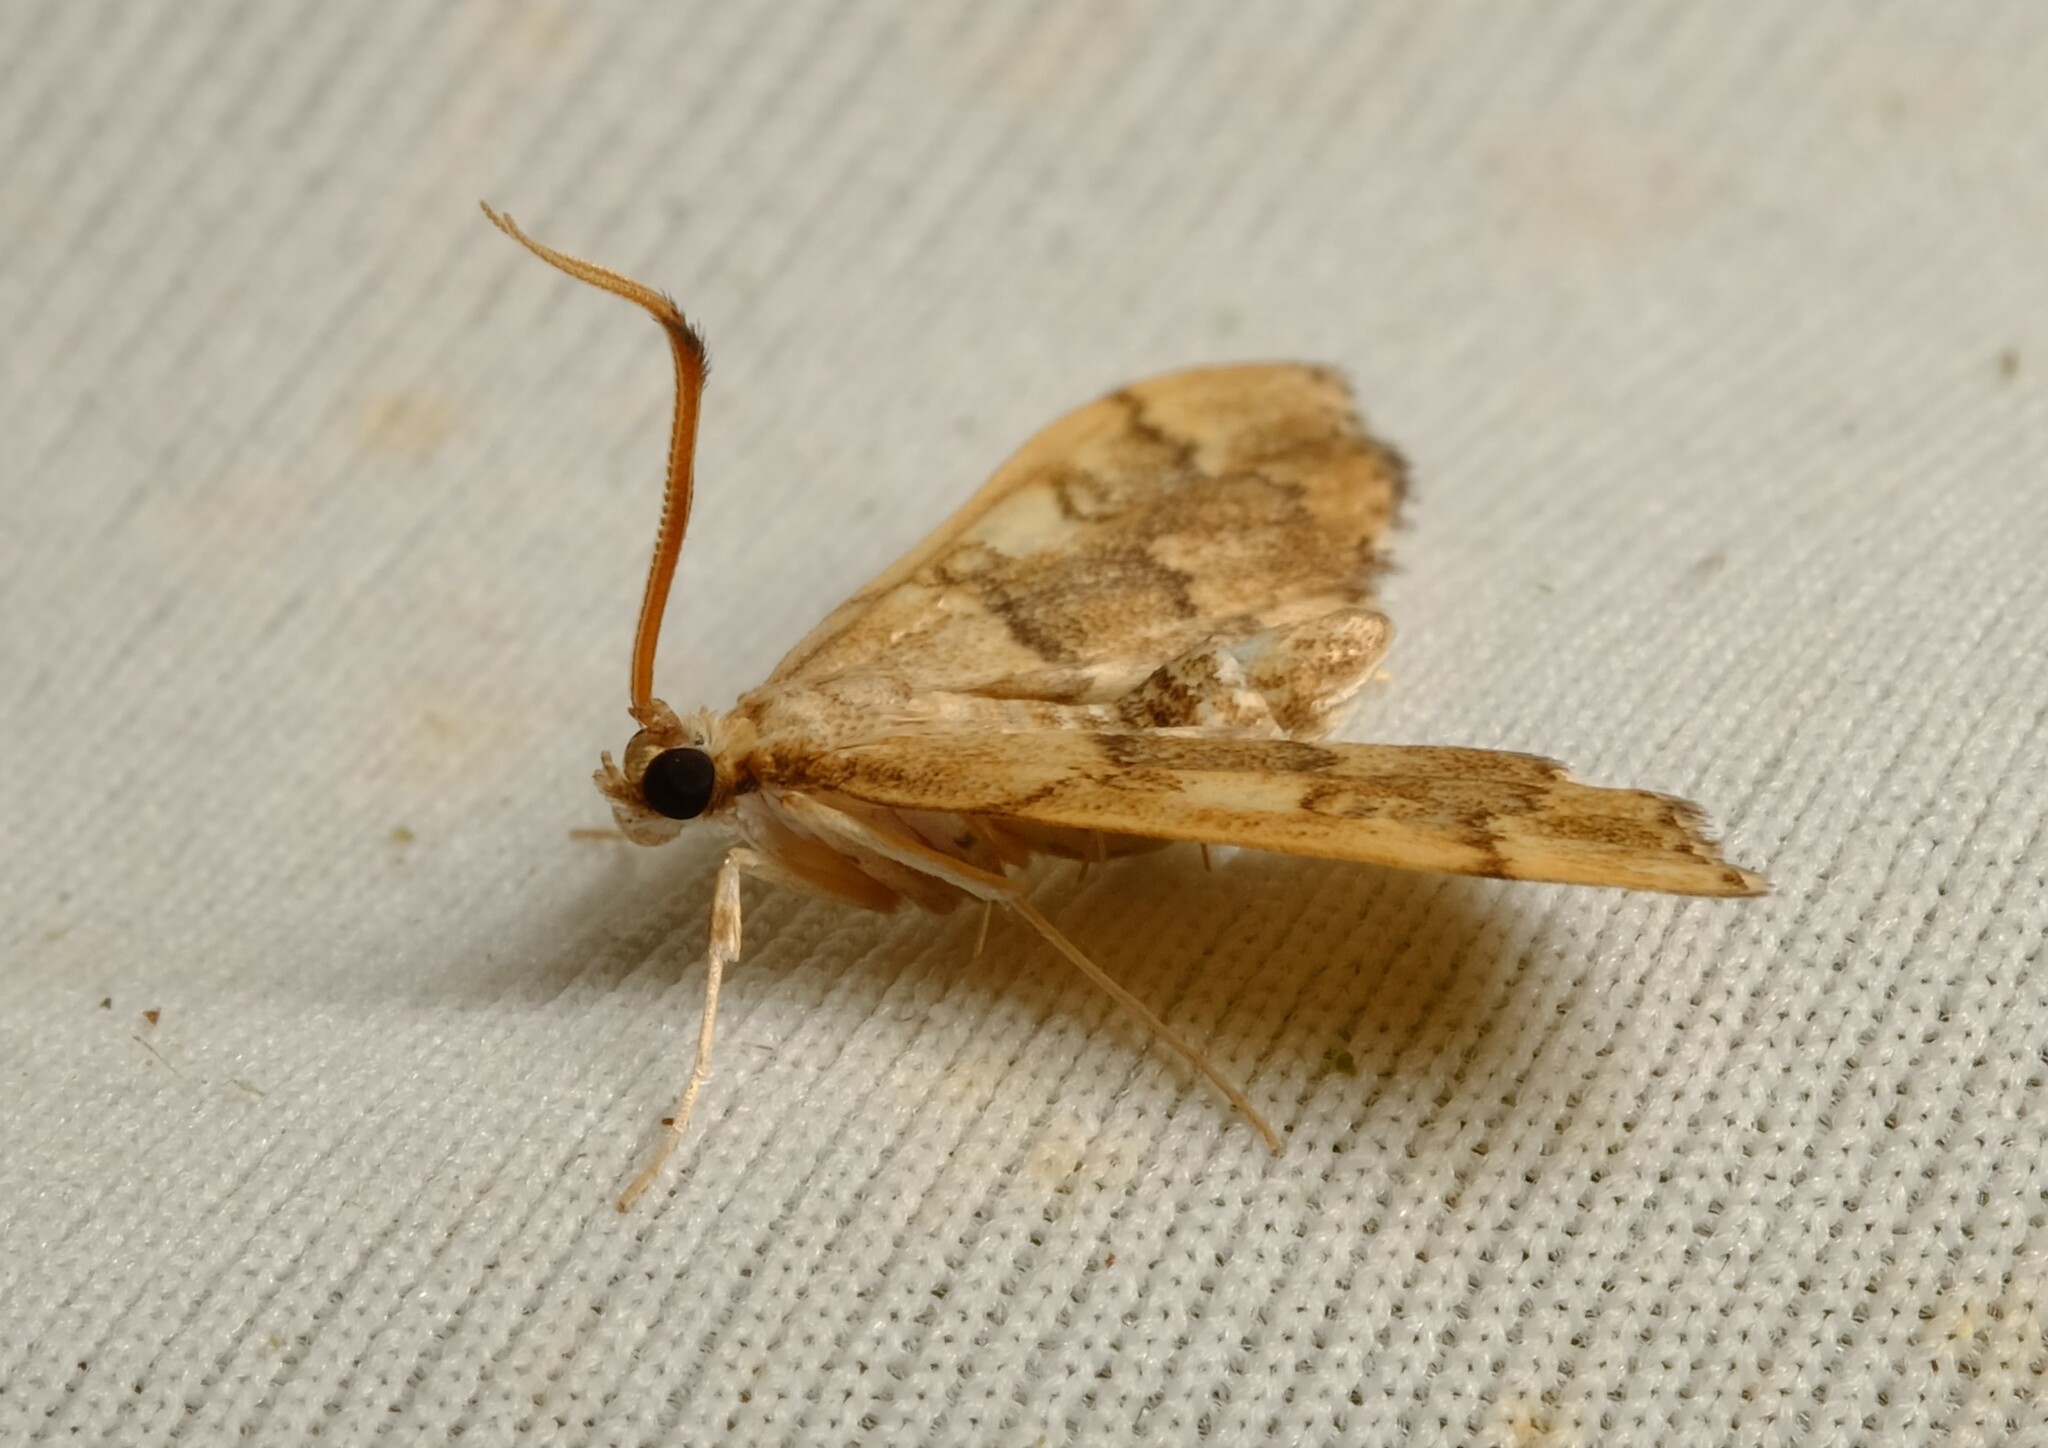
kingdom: Animalia
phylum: Arthropoda
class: Insecta
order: Lepidoptera
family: Crambidae
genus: Nacoleia
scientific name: Nacoleia oncophragma
